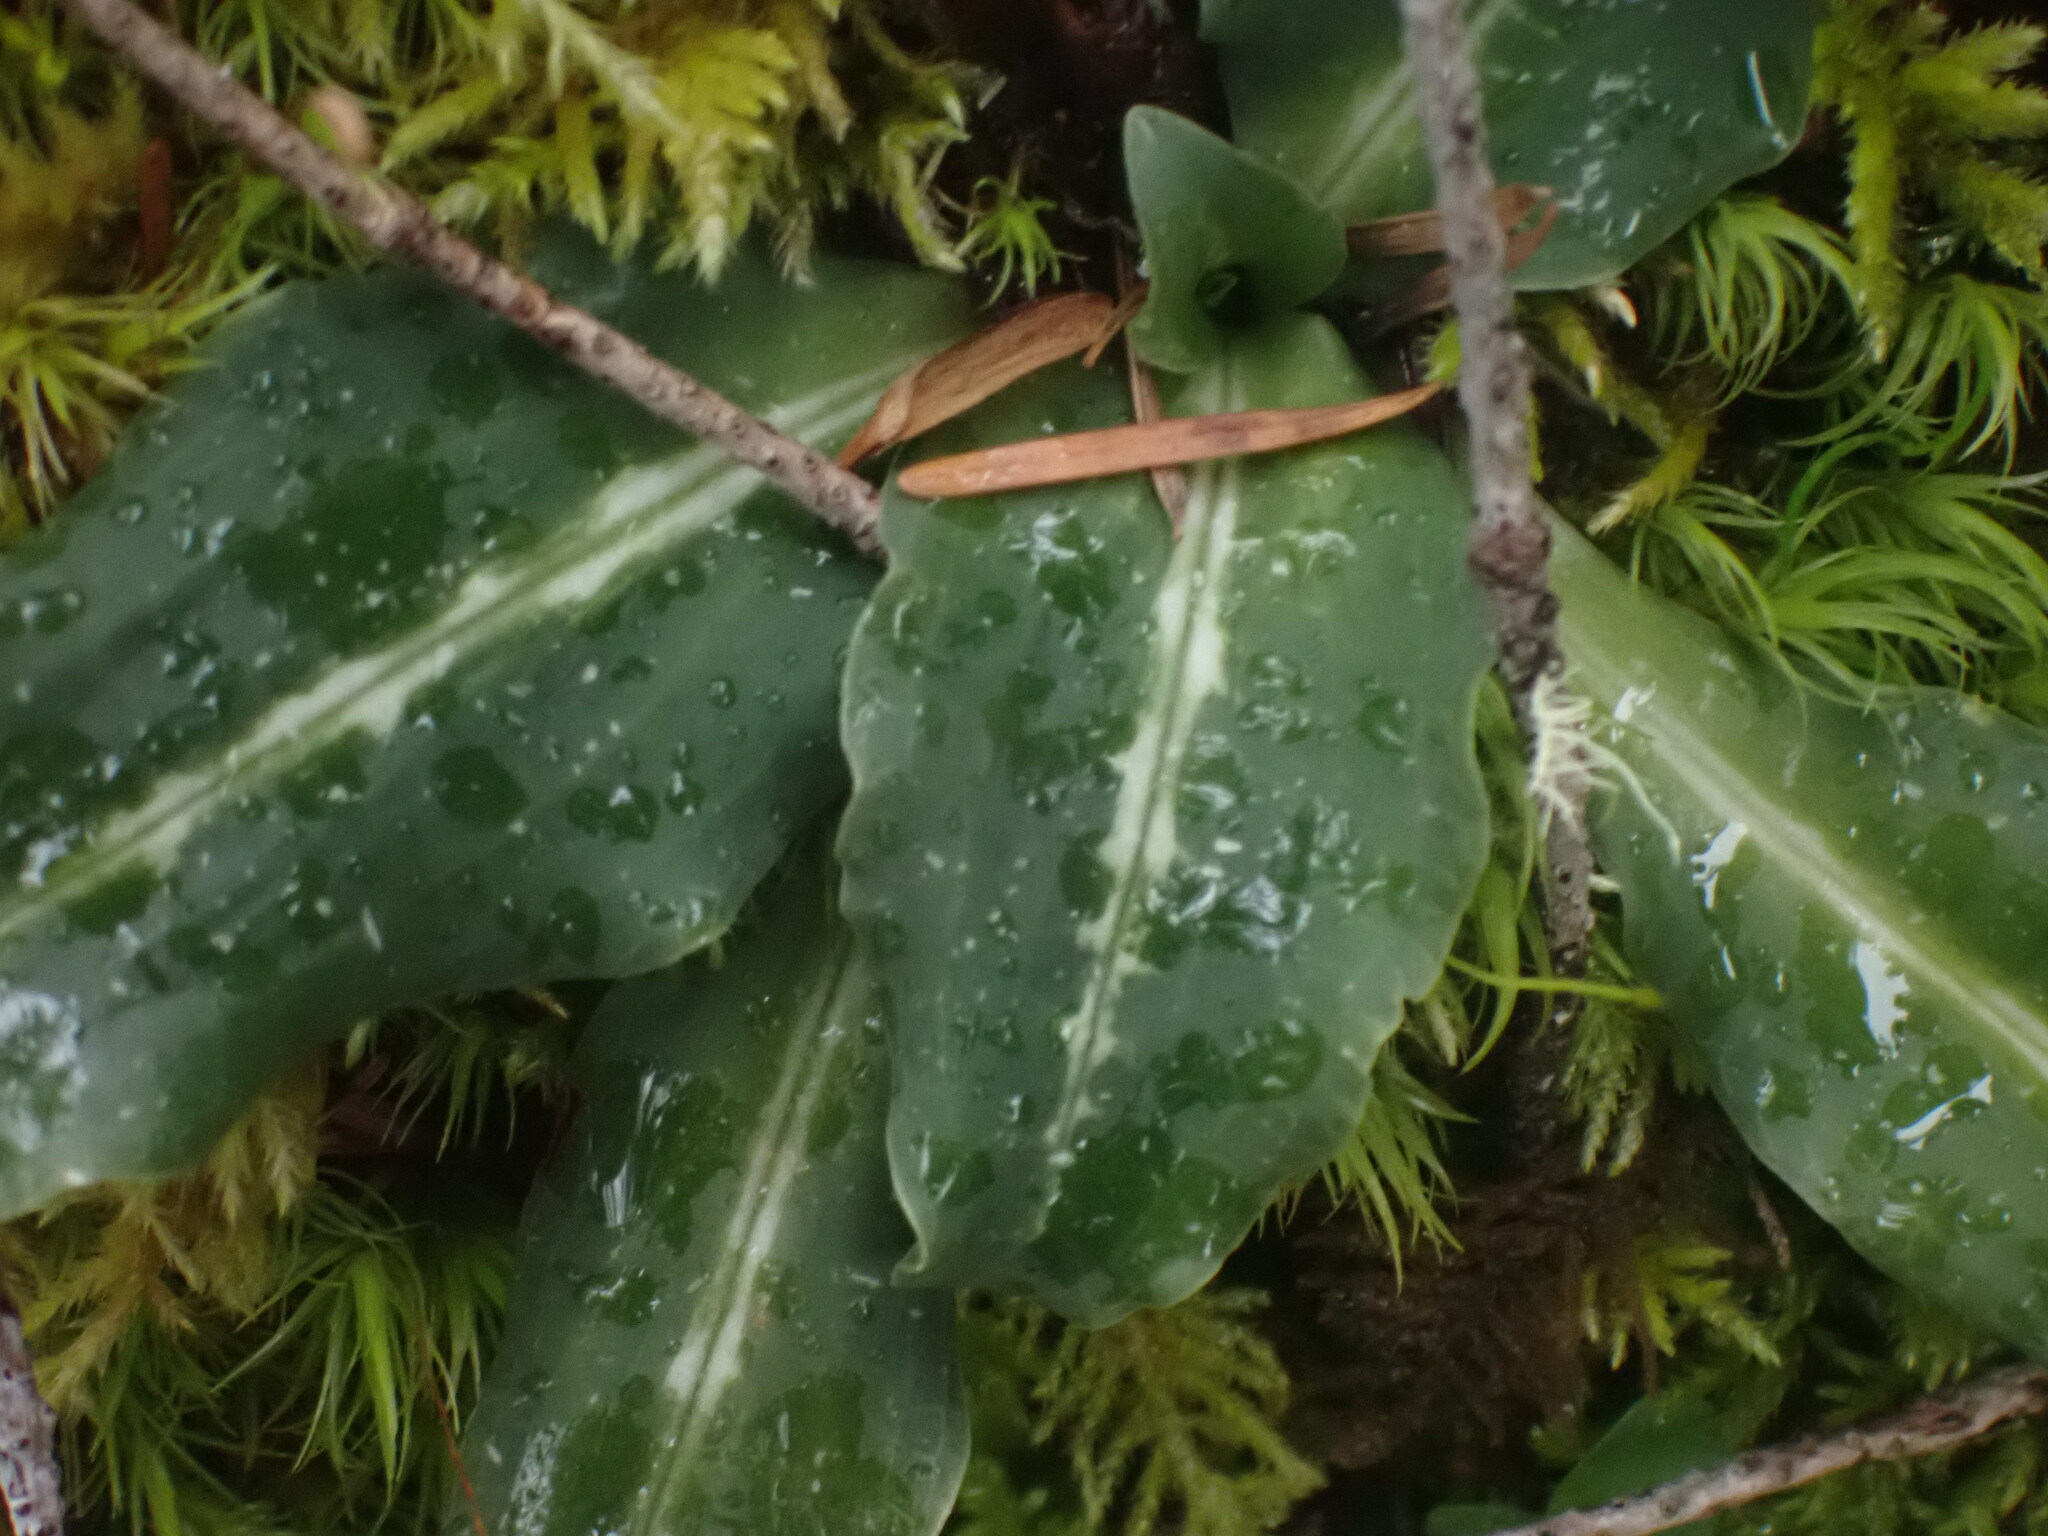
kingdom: Plantae
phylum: Tracheophyta
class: Liliopsida
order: Asparagales
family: Orchidaceae
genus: Goodyera
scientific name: Goodyera oblongifolia
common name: Giant rattlesnake-plantain
